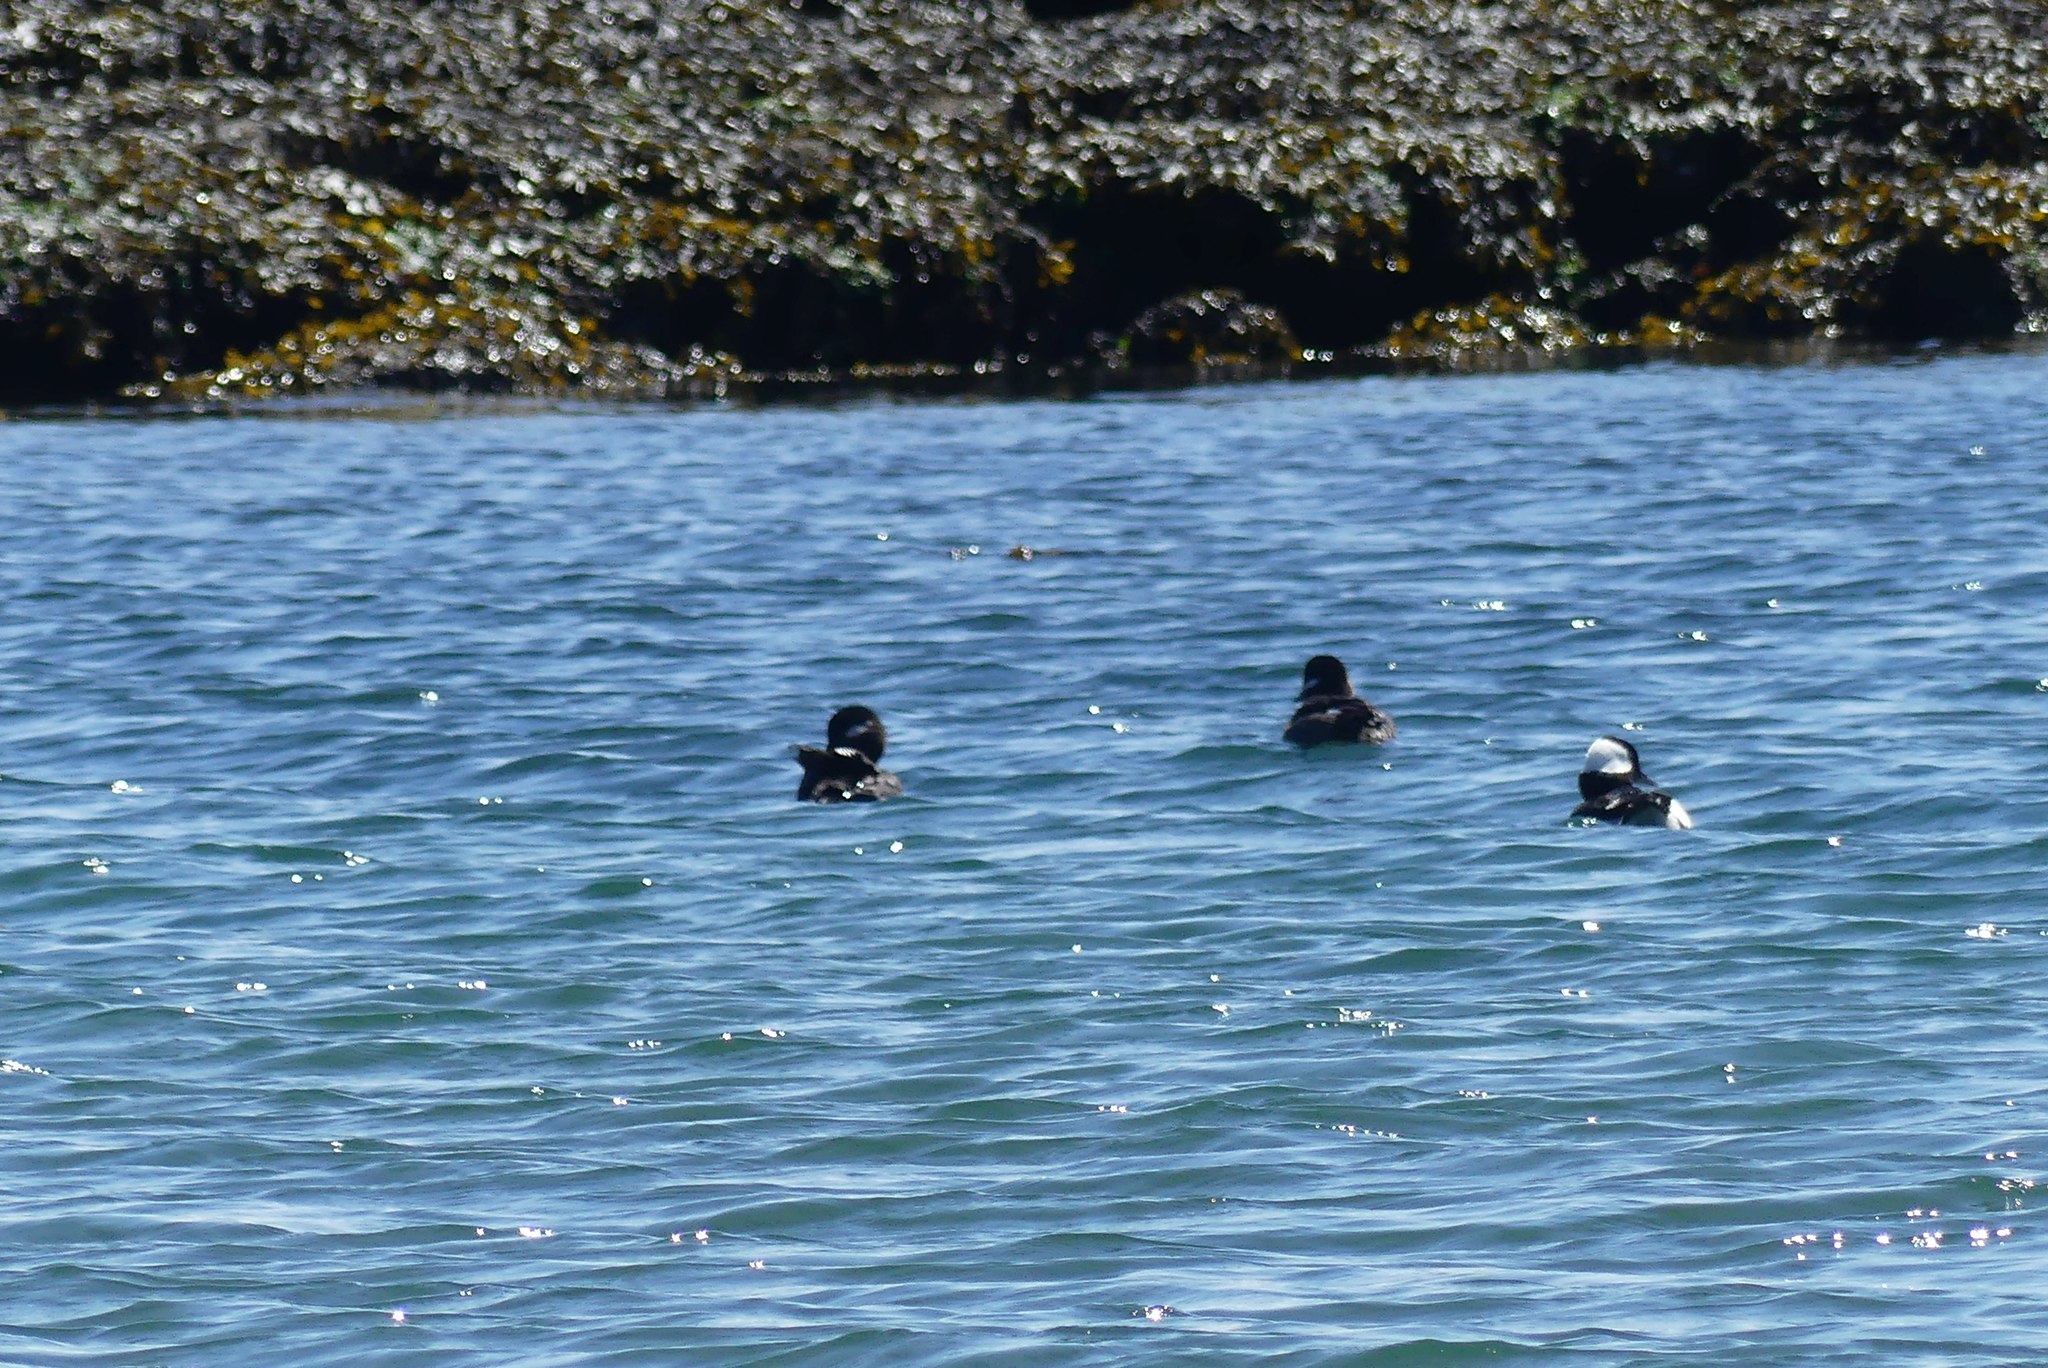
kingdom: Animalia
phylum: Chordata
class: Aves
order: Anseriformes
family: Anatidae
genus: Bucephala
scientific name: Bucephala albeola
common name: Bufflehead
